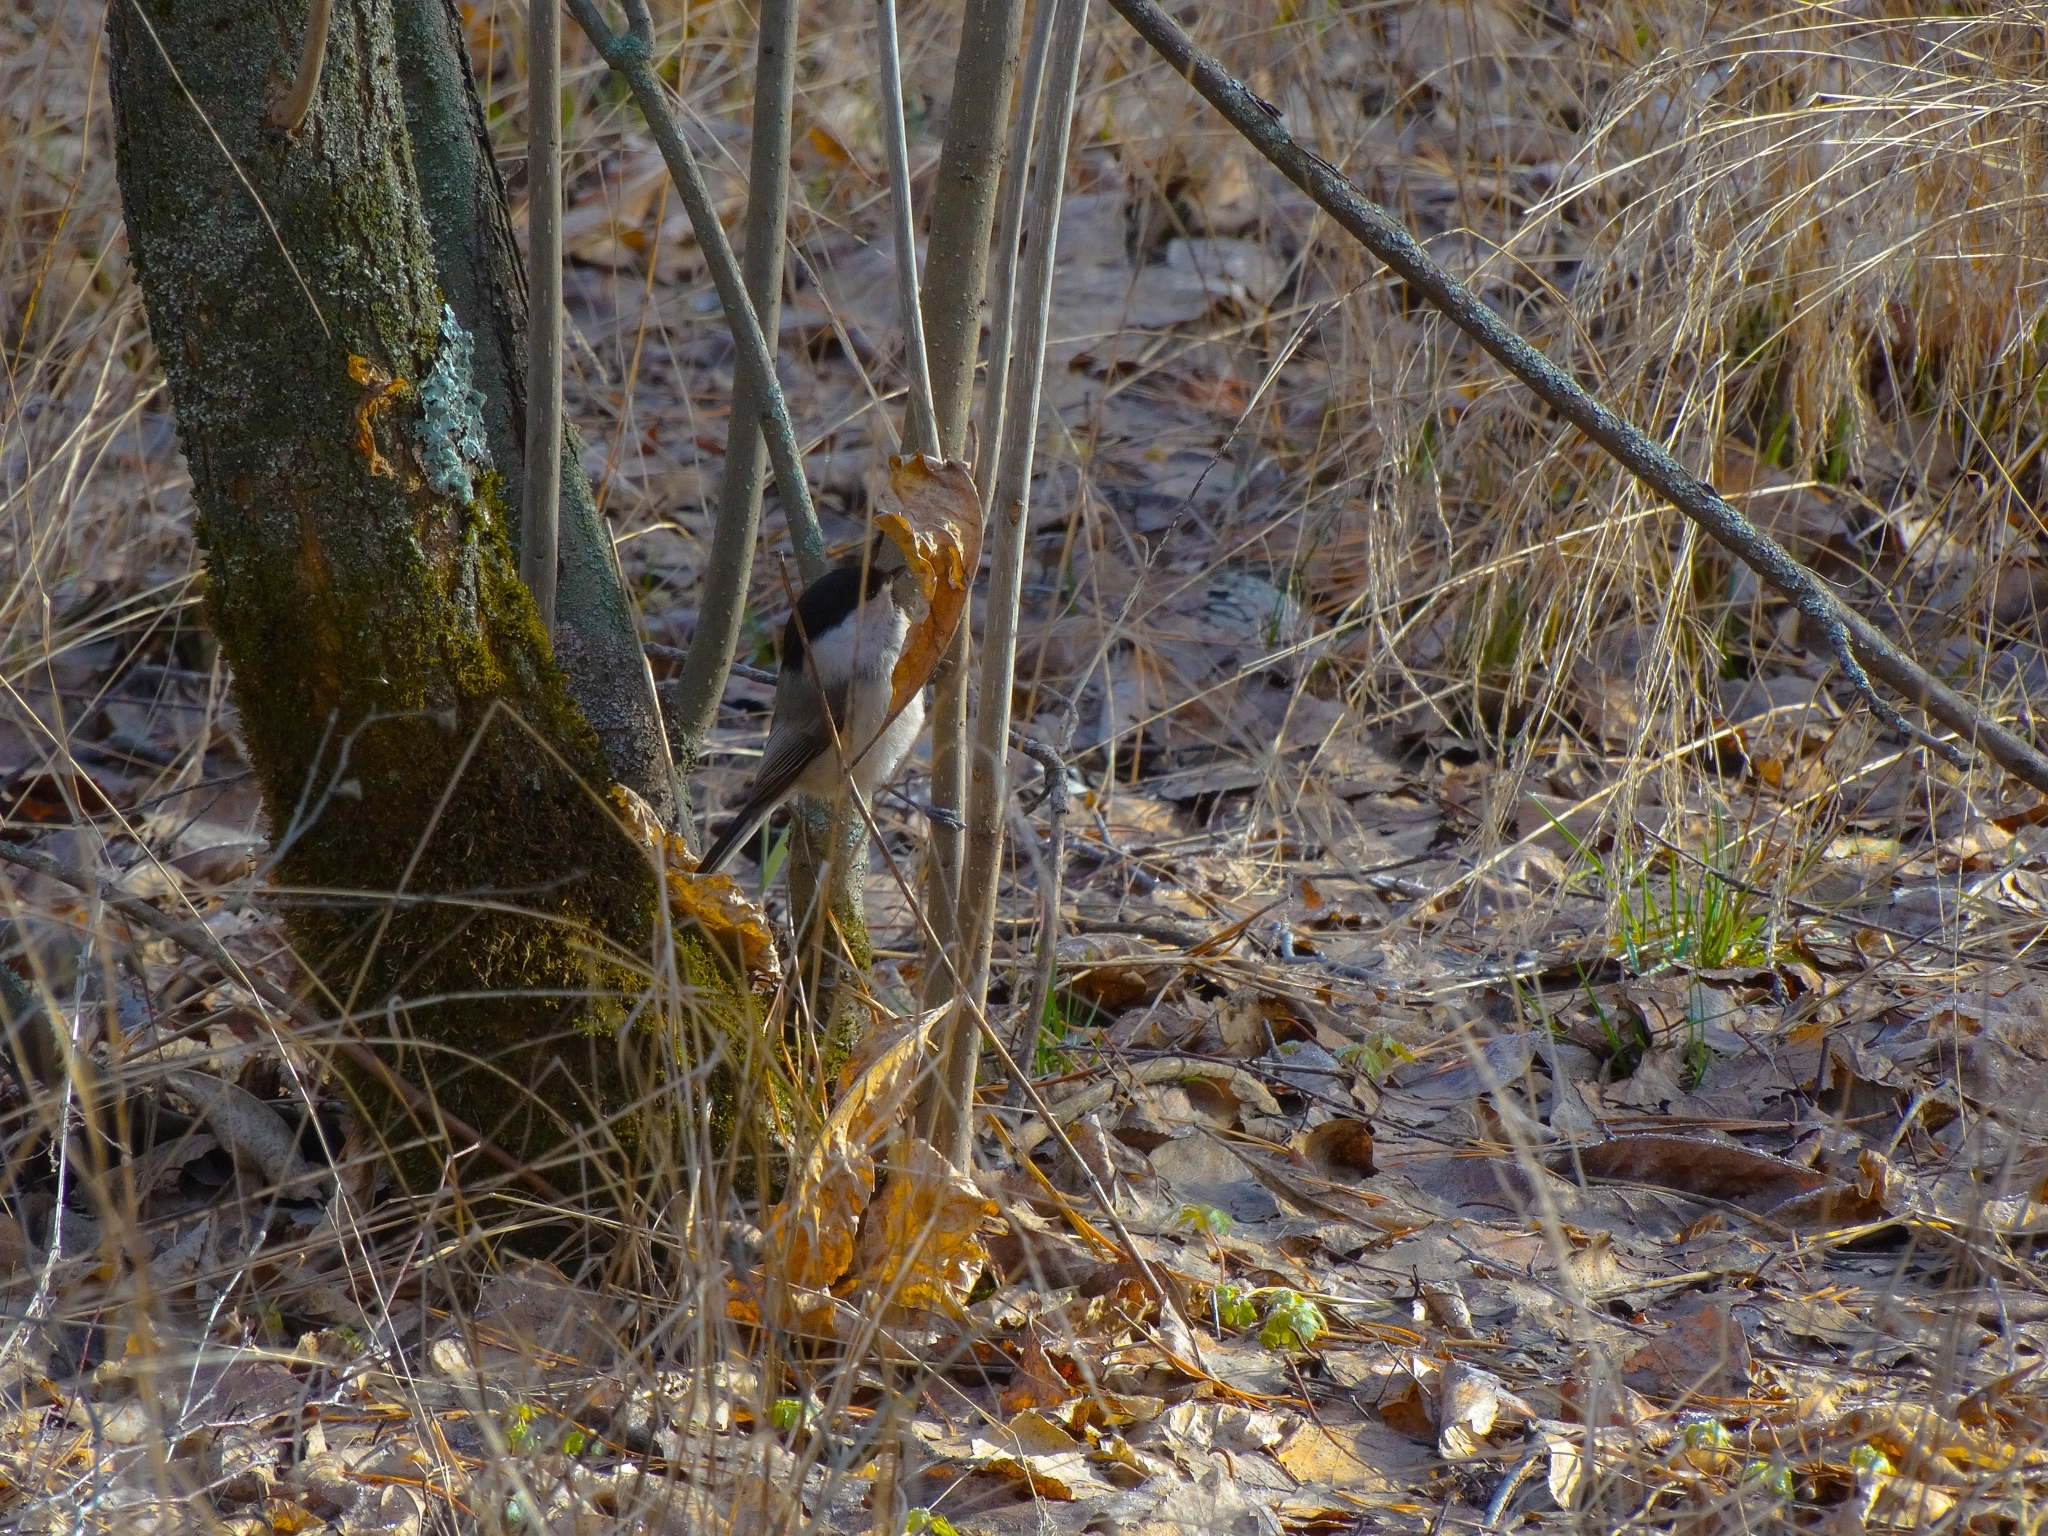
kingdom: Animalia
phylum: Chordata
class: Aves
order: Passeriformes
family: Paridae
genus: Poecile
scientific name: Poecile montanus
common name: Willow tit
